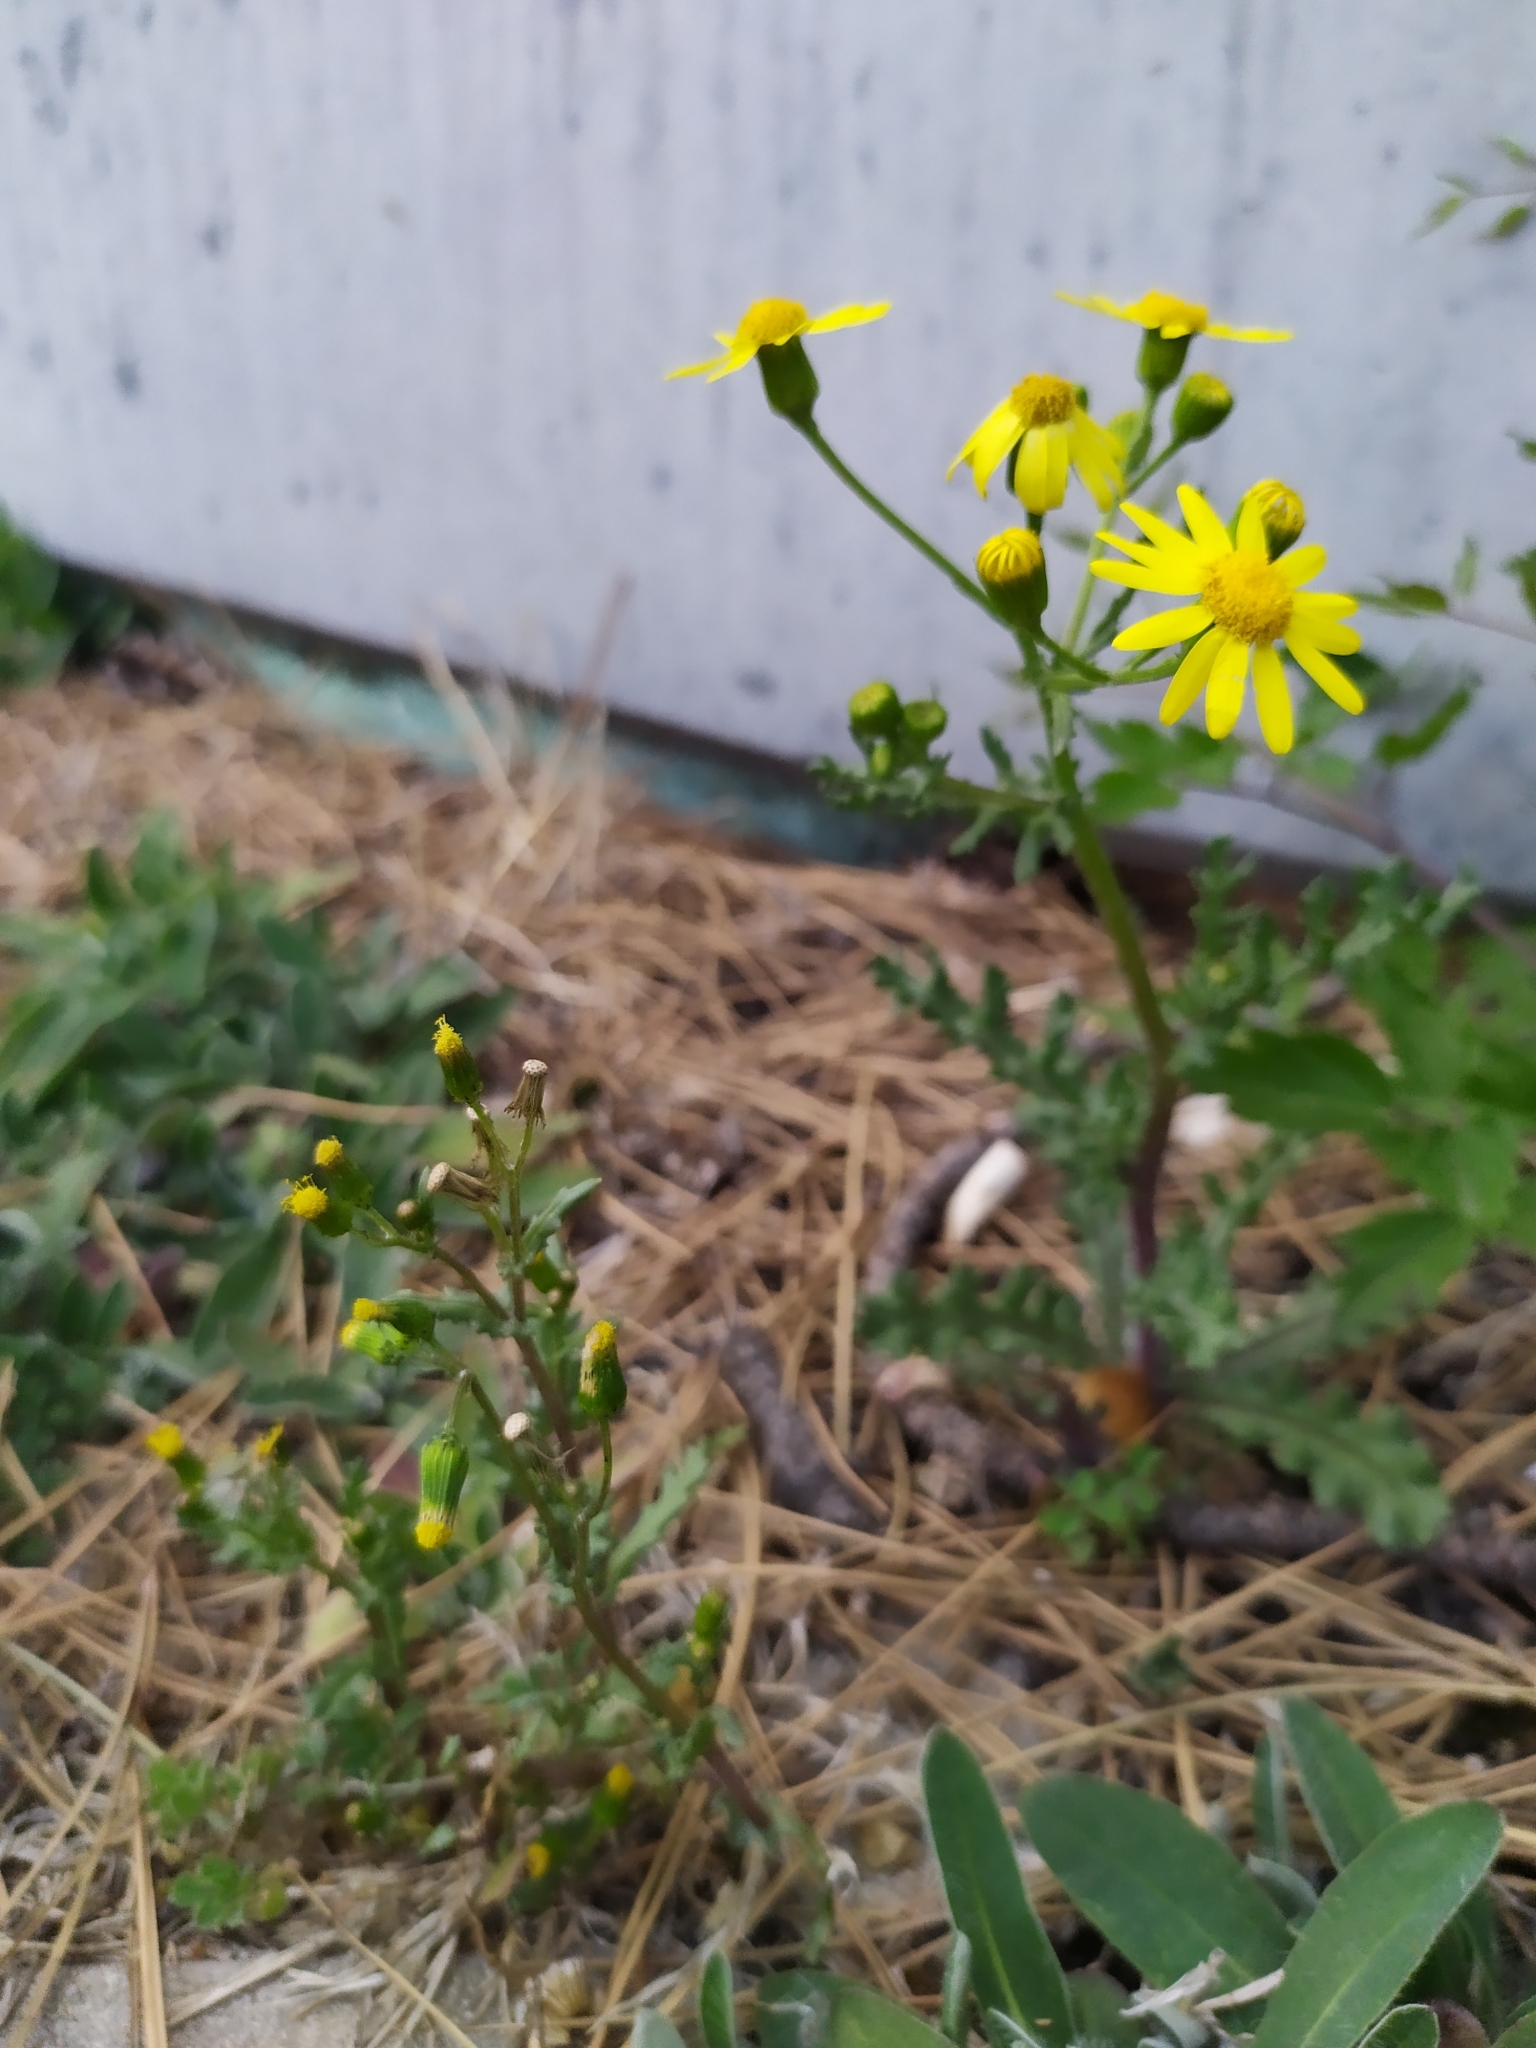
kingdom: Plantae
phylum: Tracheophyta
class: Magnoliopsida
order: Asterales
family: Asteraceae
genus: Senecio
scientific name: Senecio vernalis
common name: Eastern groundsel
